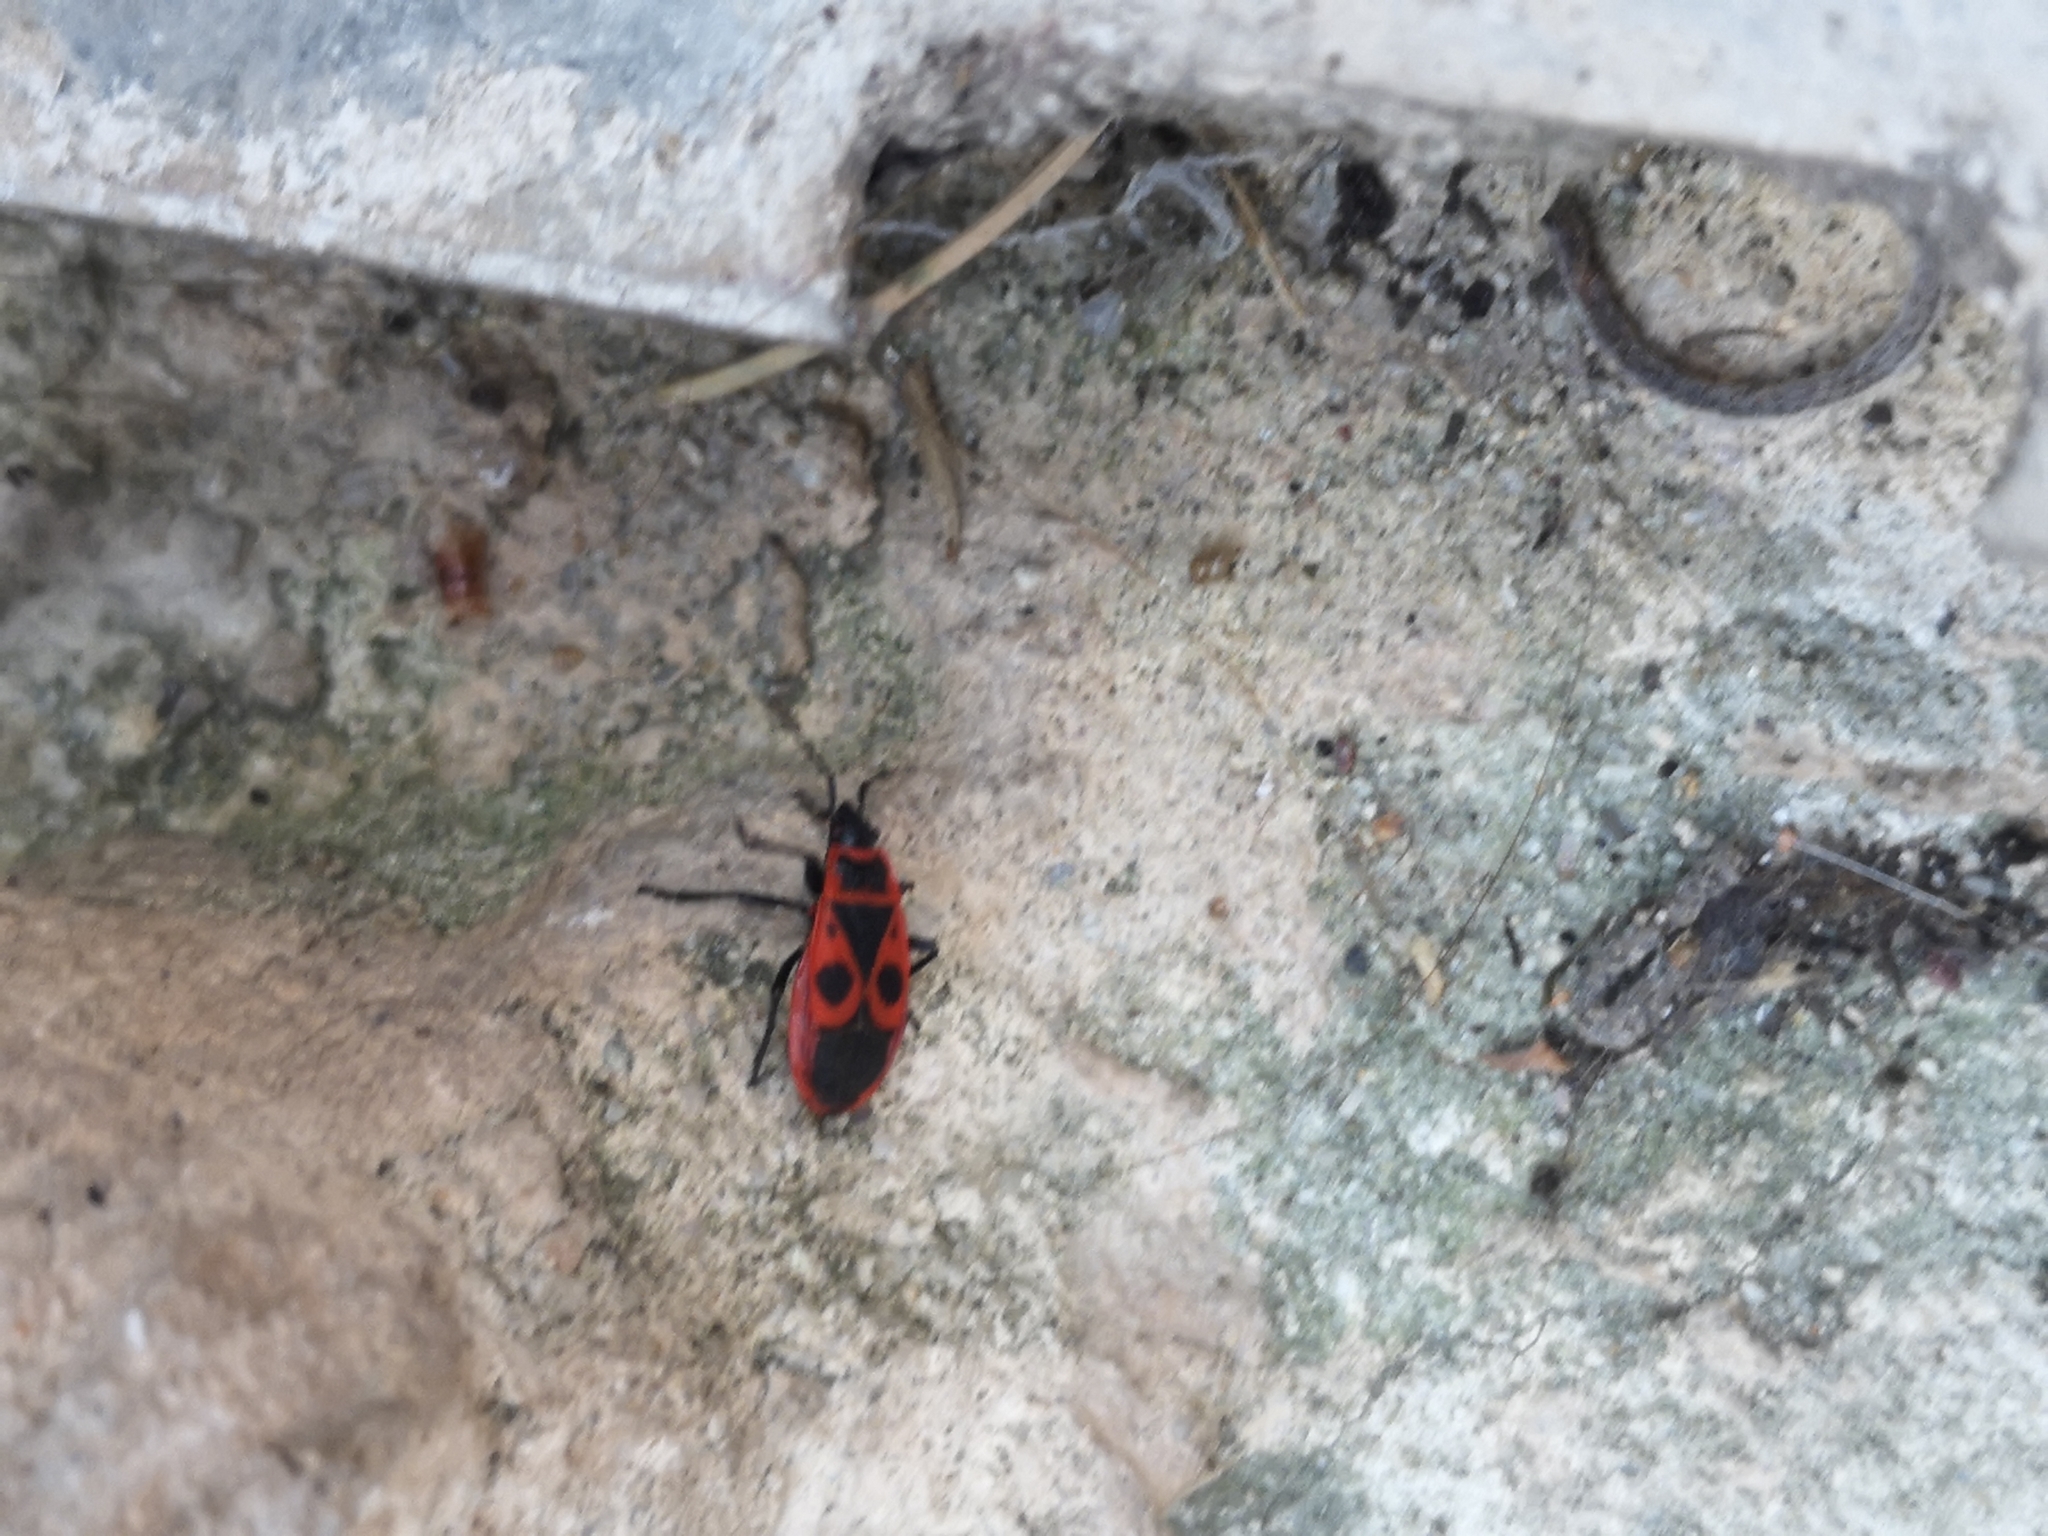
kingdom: Animalia
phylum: Arthropoda
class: Insecta
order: Hemiptera
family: Pyrrhocoridae
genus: Pyrrhocoris
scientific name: Pyrrhocoris apterus
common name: Firebug
